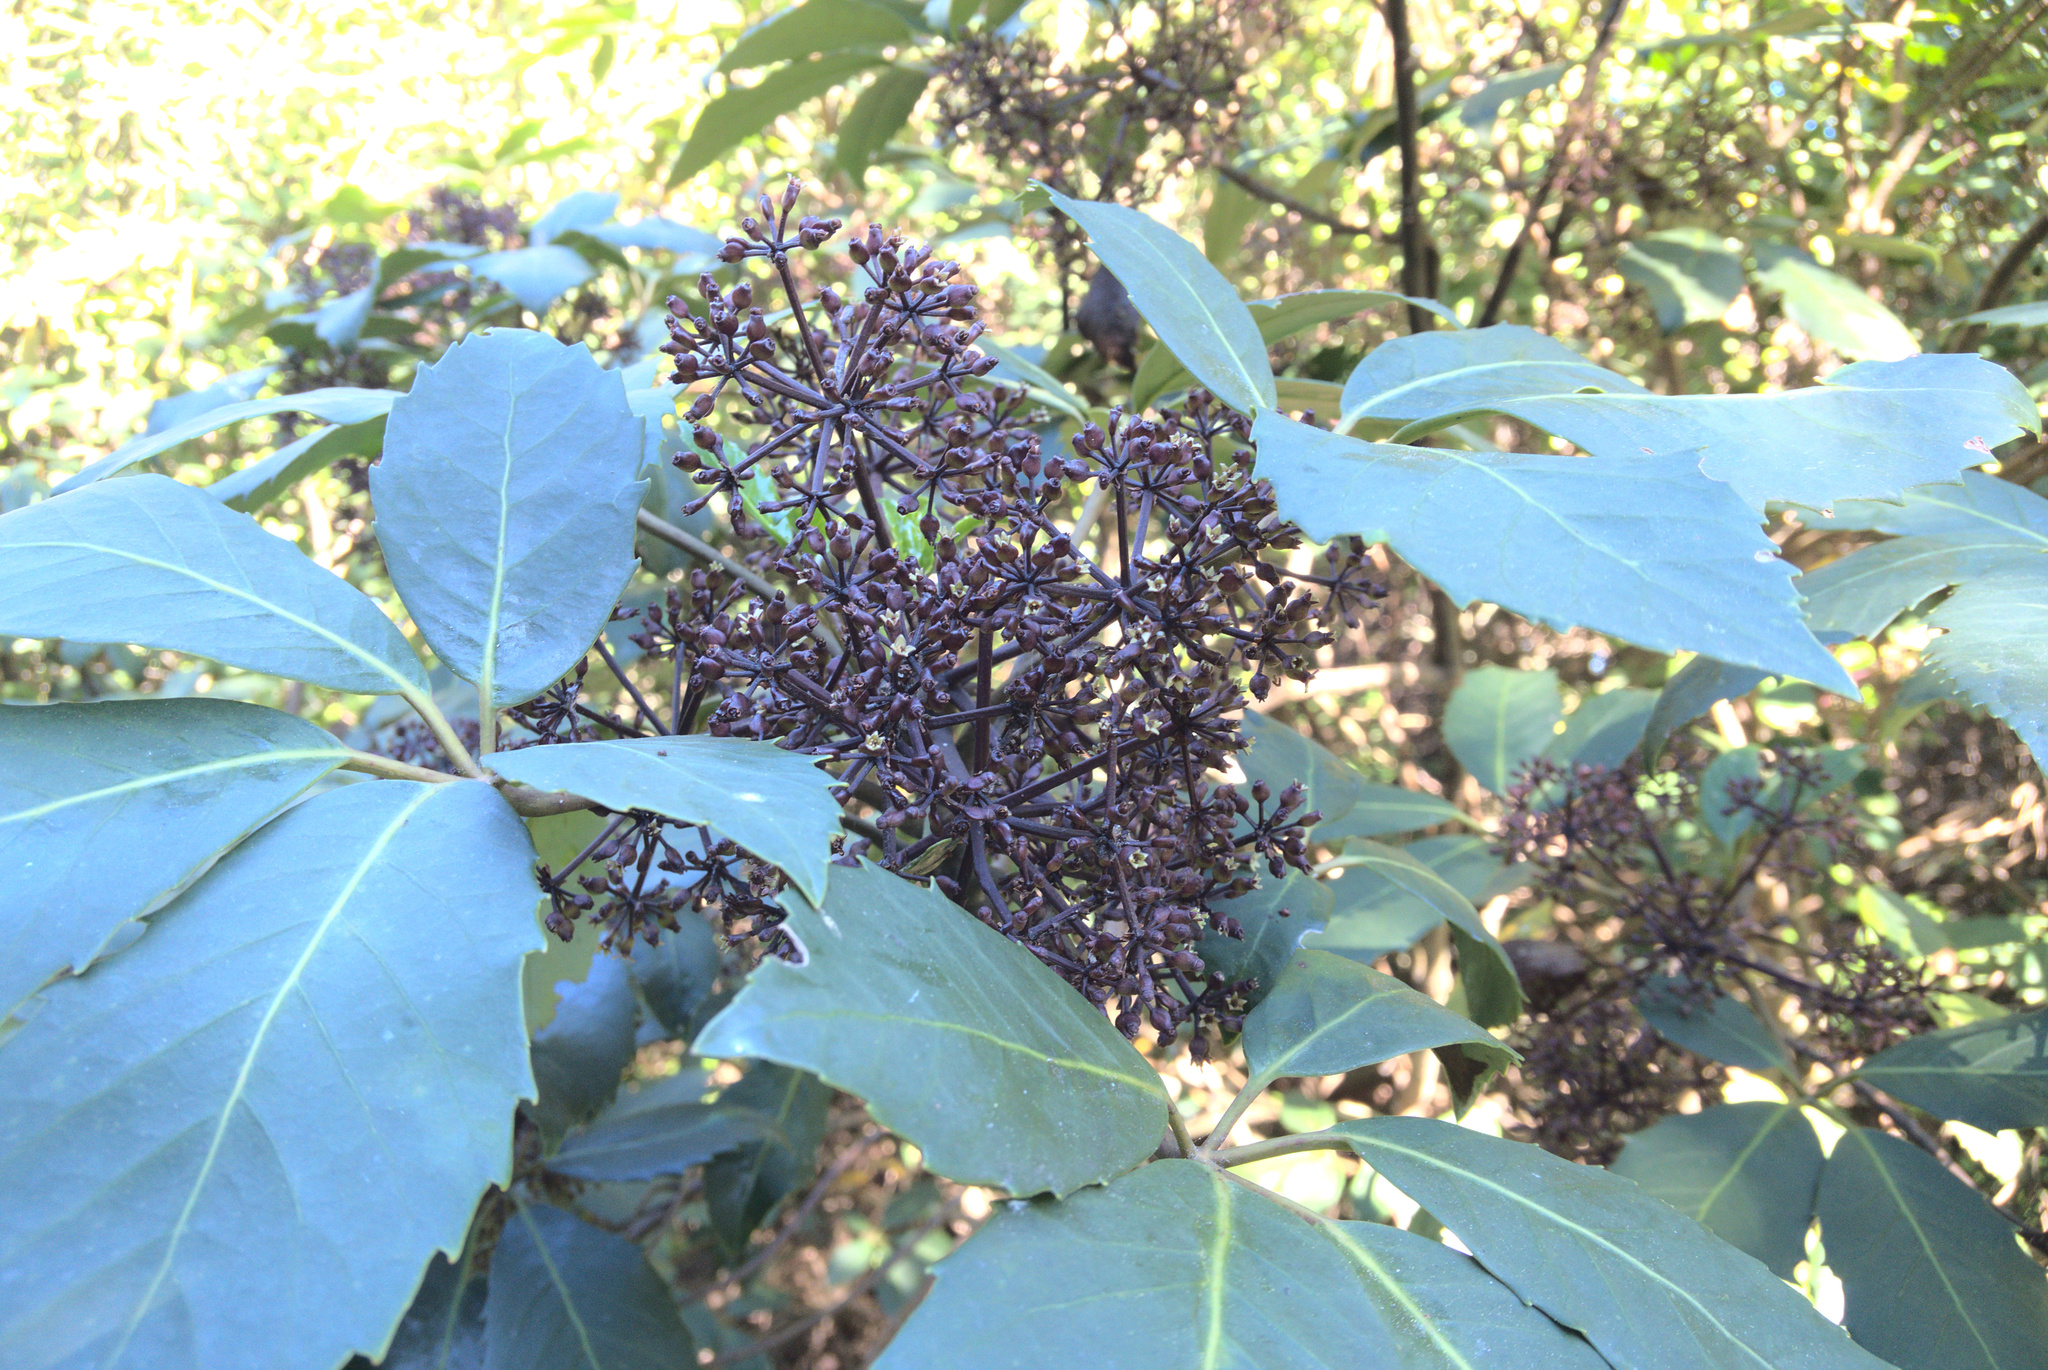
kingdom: Plantae
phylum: Tracheophyta
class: Magnoliopsida
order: Apiales
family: Araliaceae
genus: Neopanax
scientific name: Neopanax arboreus
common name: Five-fingers
